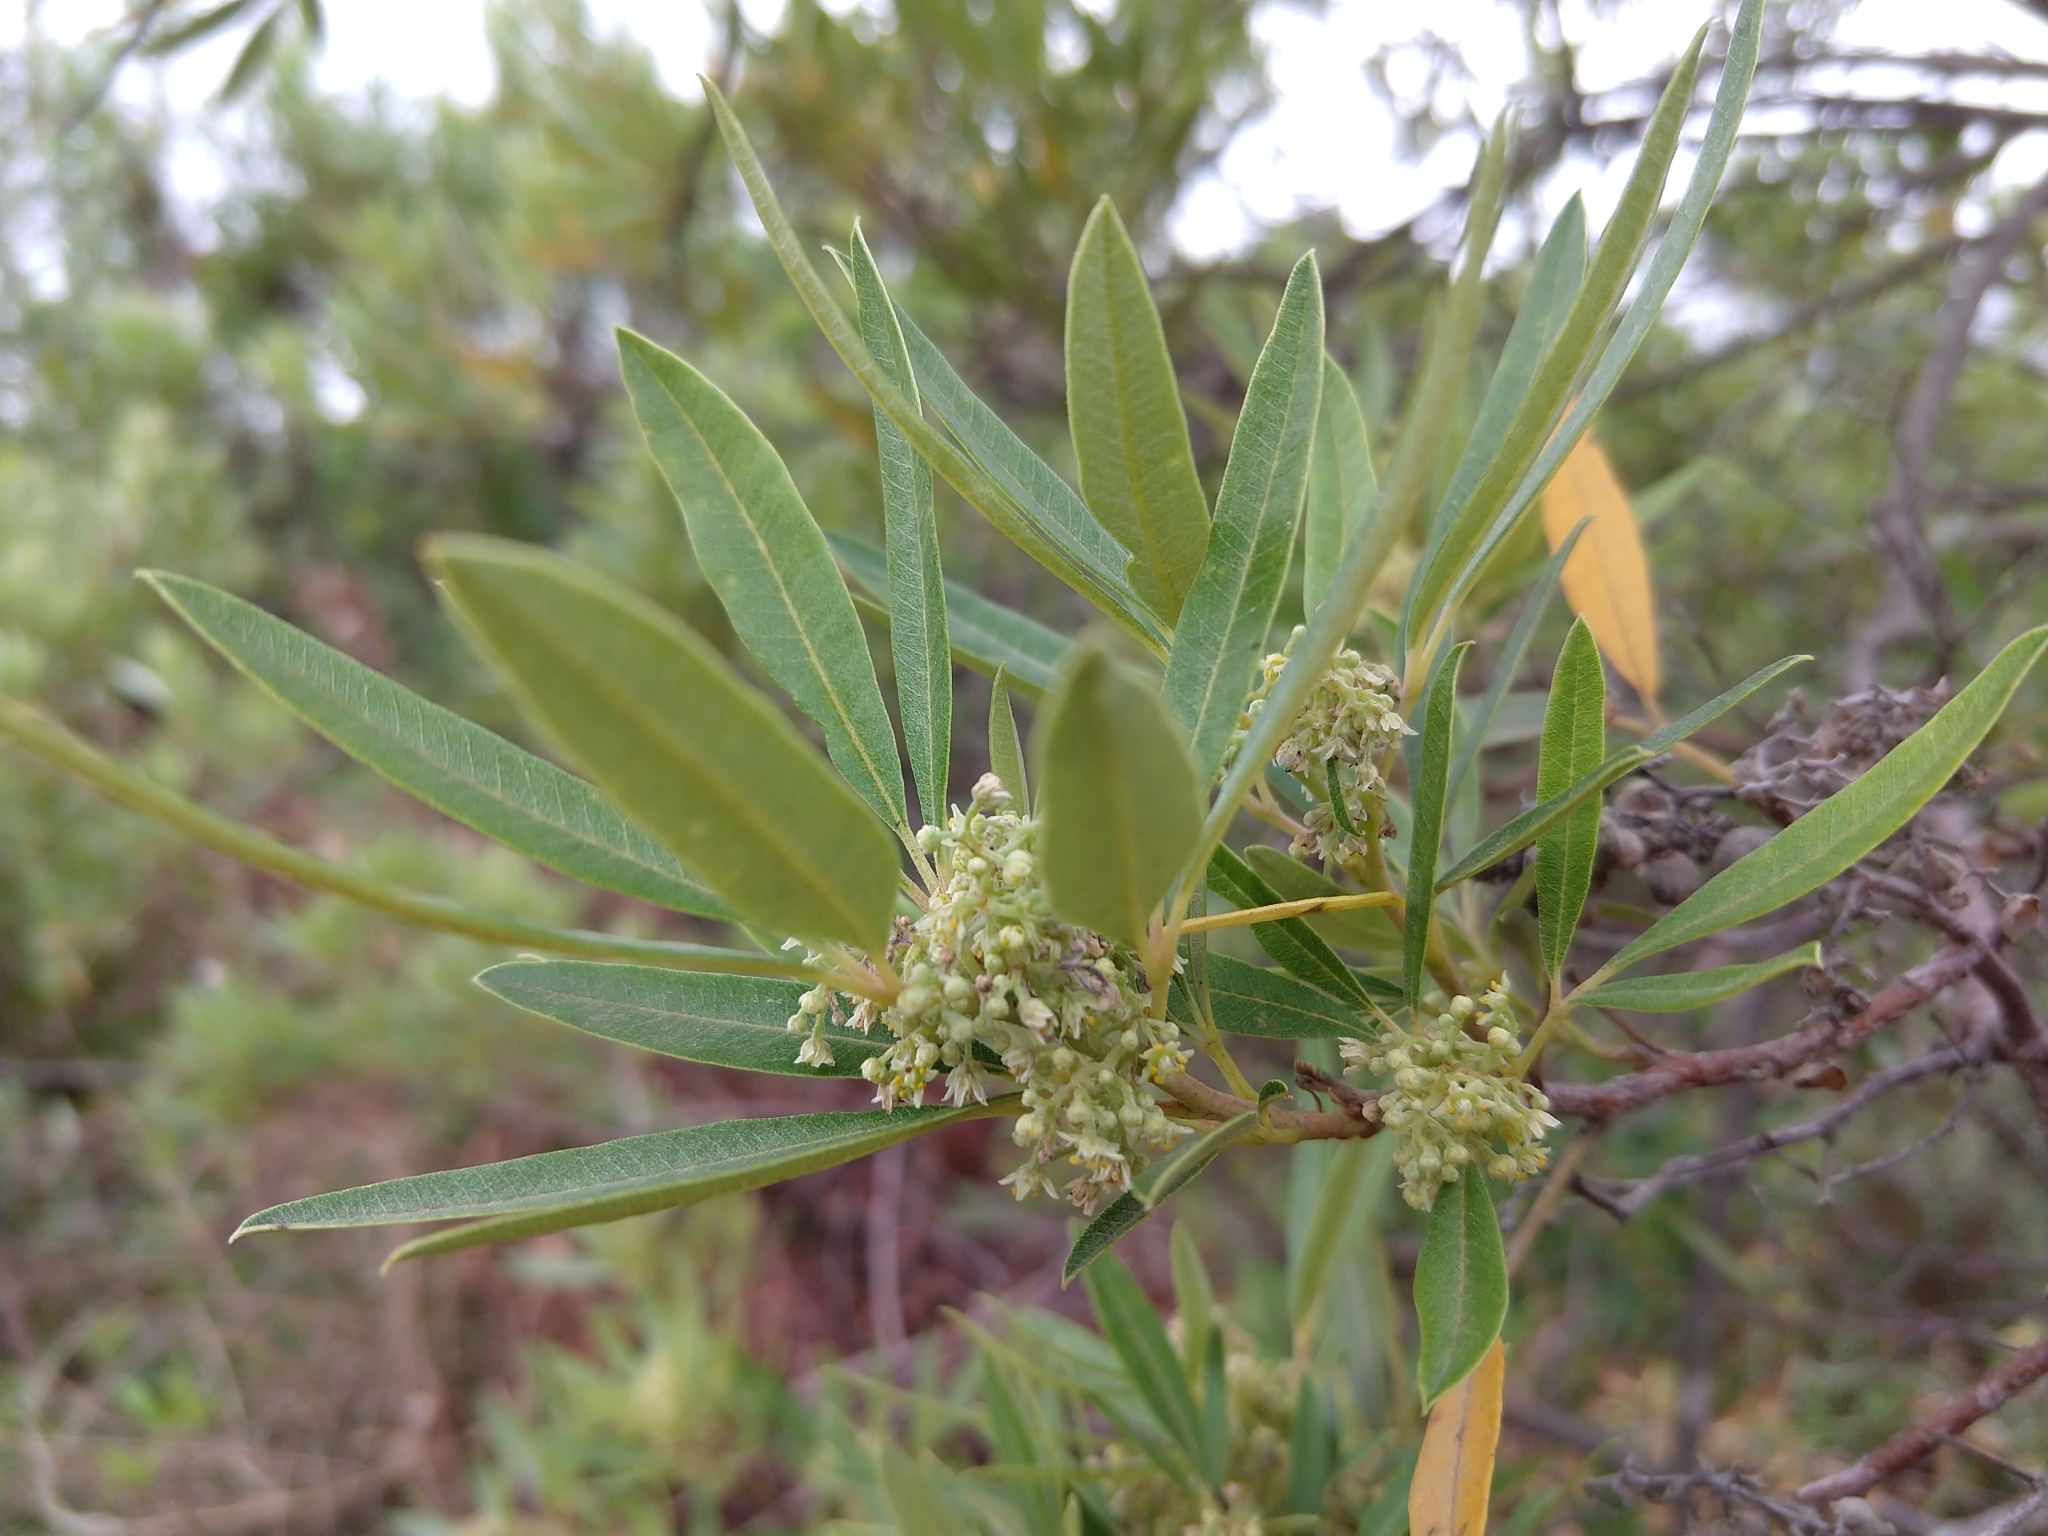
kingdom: Plantae
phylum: Tracheophyta
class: Magnoliopsida
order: Sapindales
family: Anacardiaceae
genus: Searsia
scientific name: Searsia angustifolia
